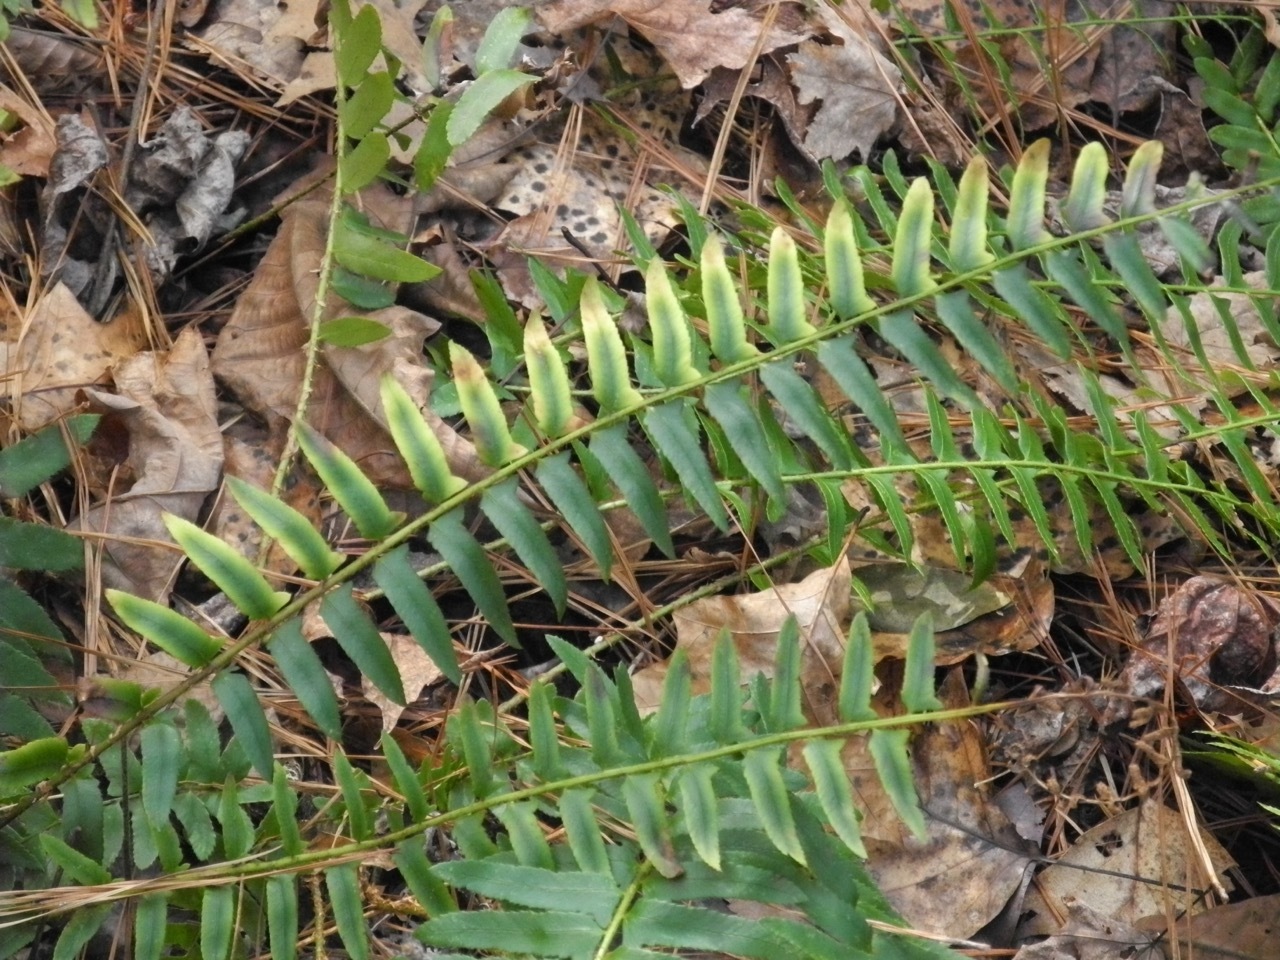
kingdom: Plantae
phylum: Tracheophyta
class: Polypodiopsida
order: Polypodiales
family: Dryopteridaceae
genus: Polystichum
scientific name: Polystichum acrostichoides
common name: Christmas fern
